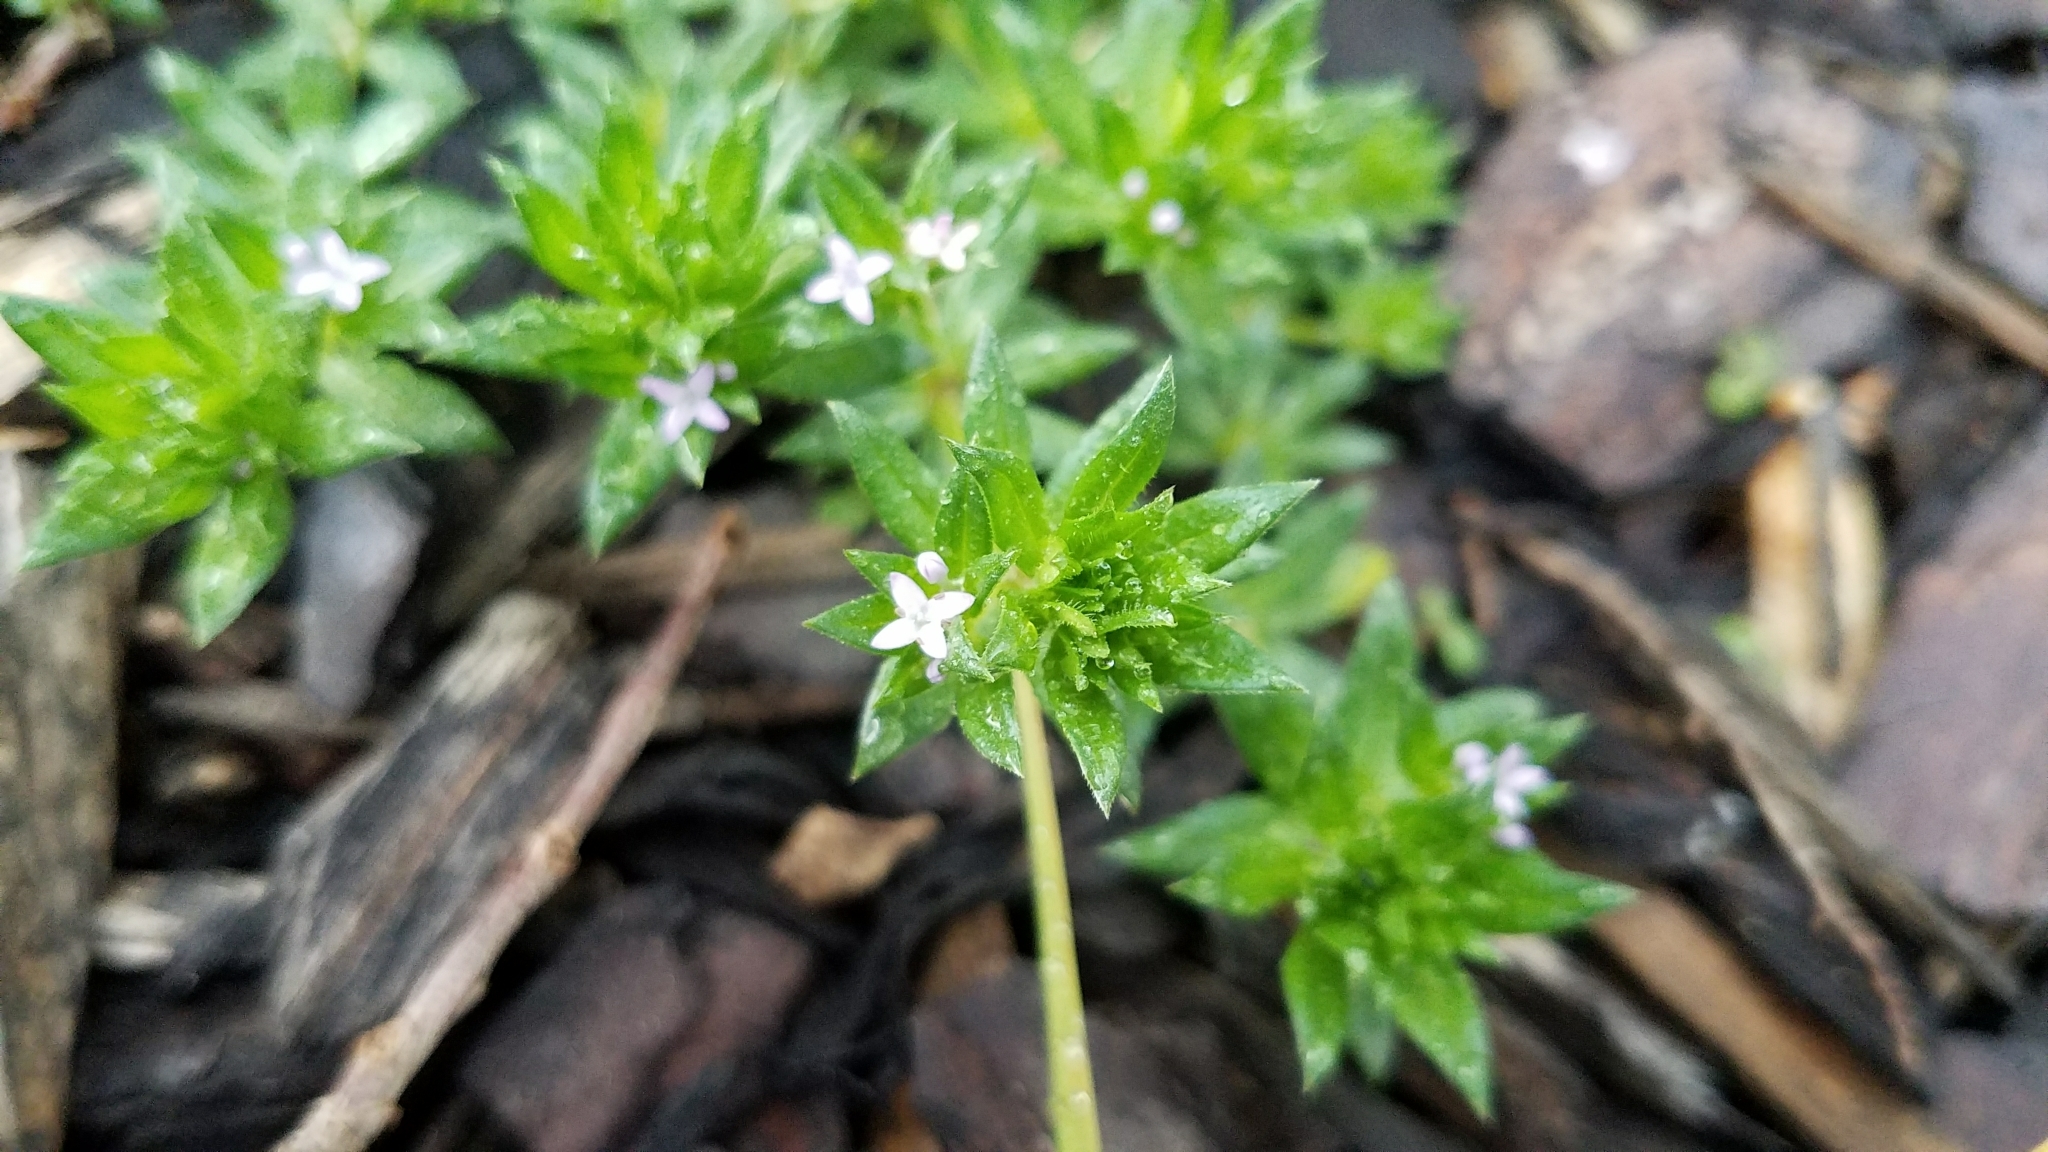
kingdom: Plantae
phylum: Tracheophyta
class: Magnoliopsida
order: Gentianales
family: Rubiaceae
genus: Sherardia
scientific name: Sherardia arvensis
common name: Field madder
